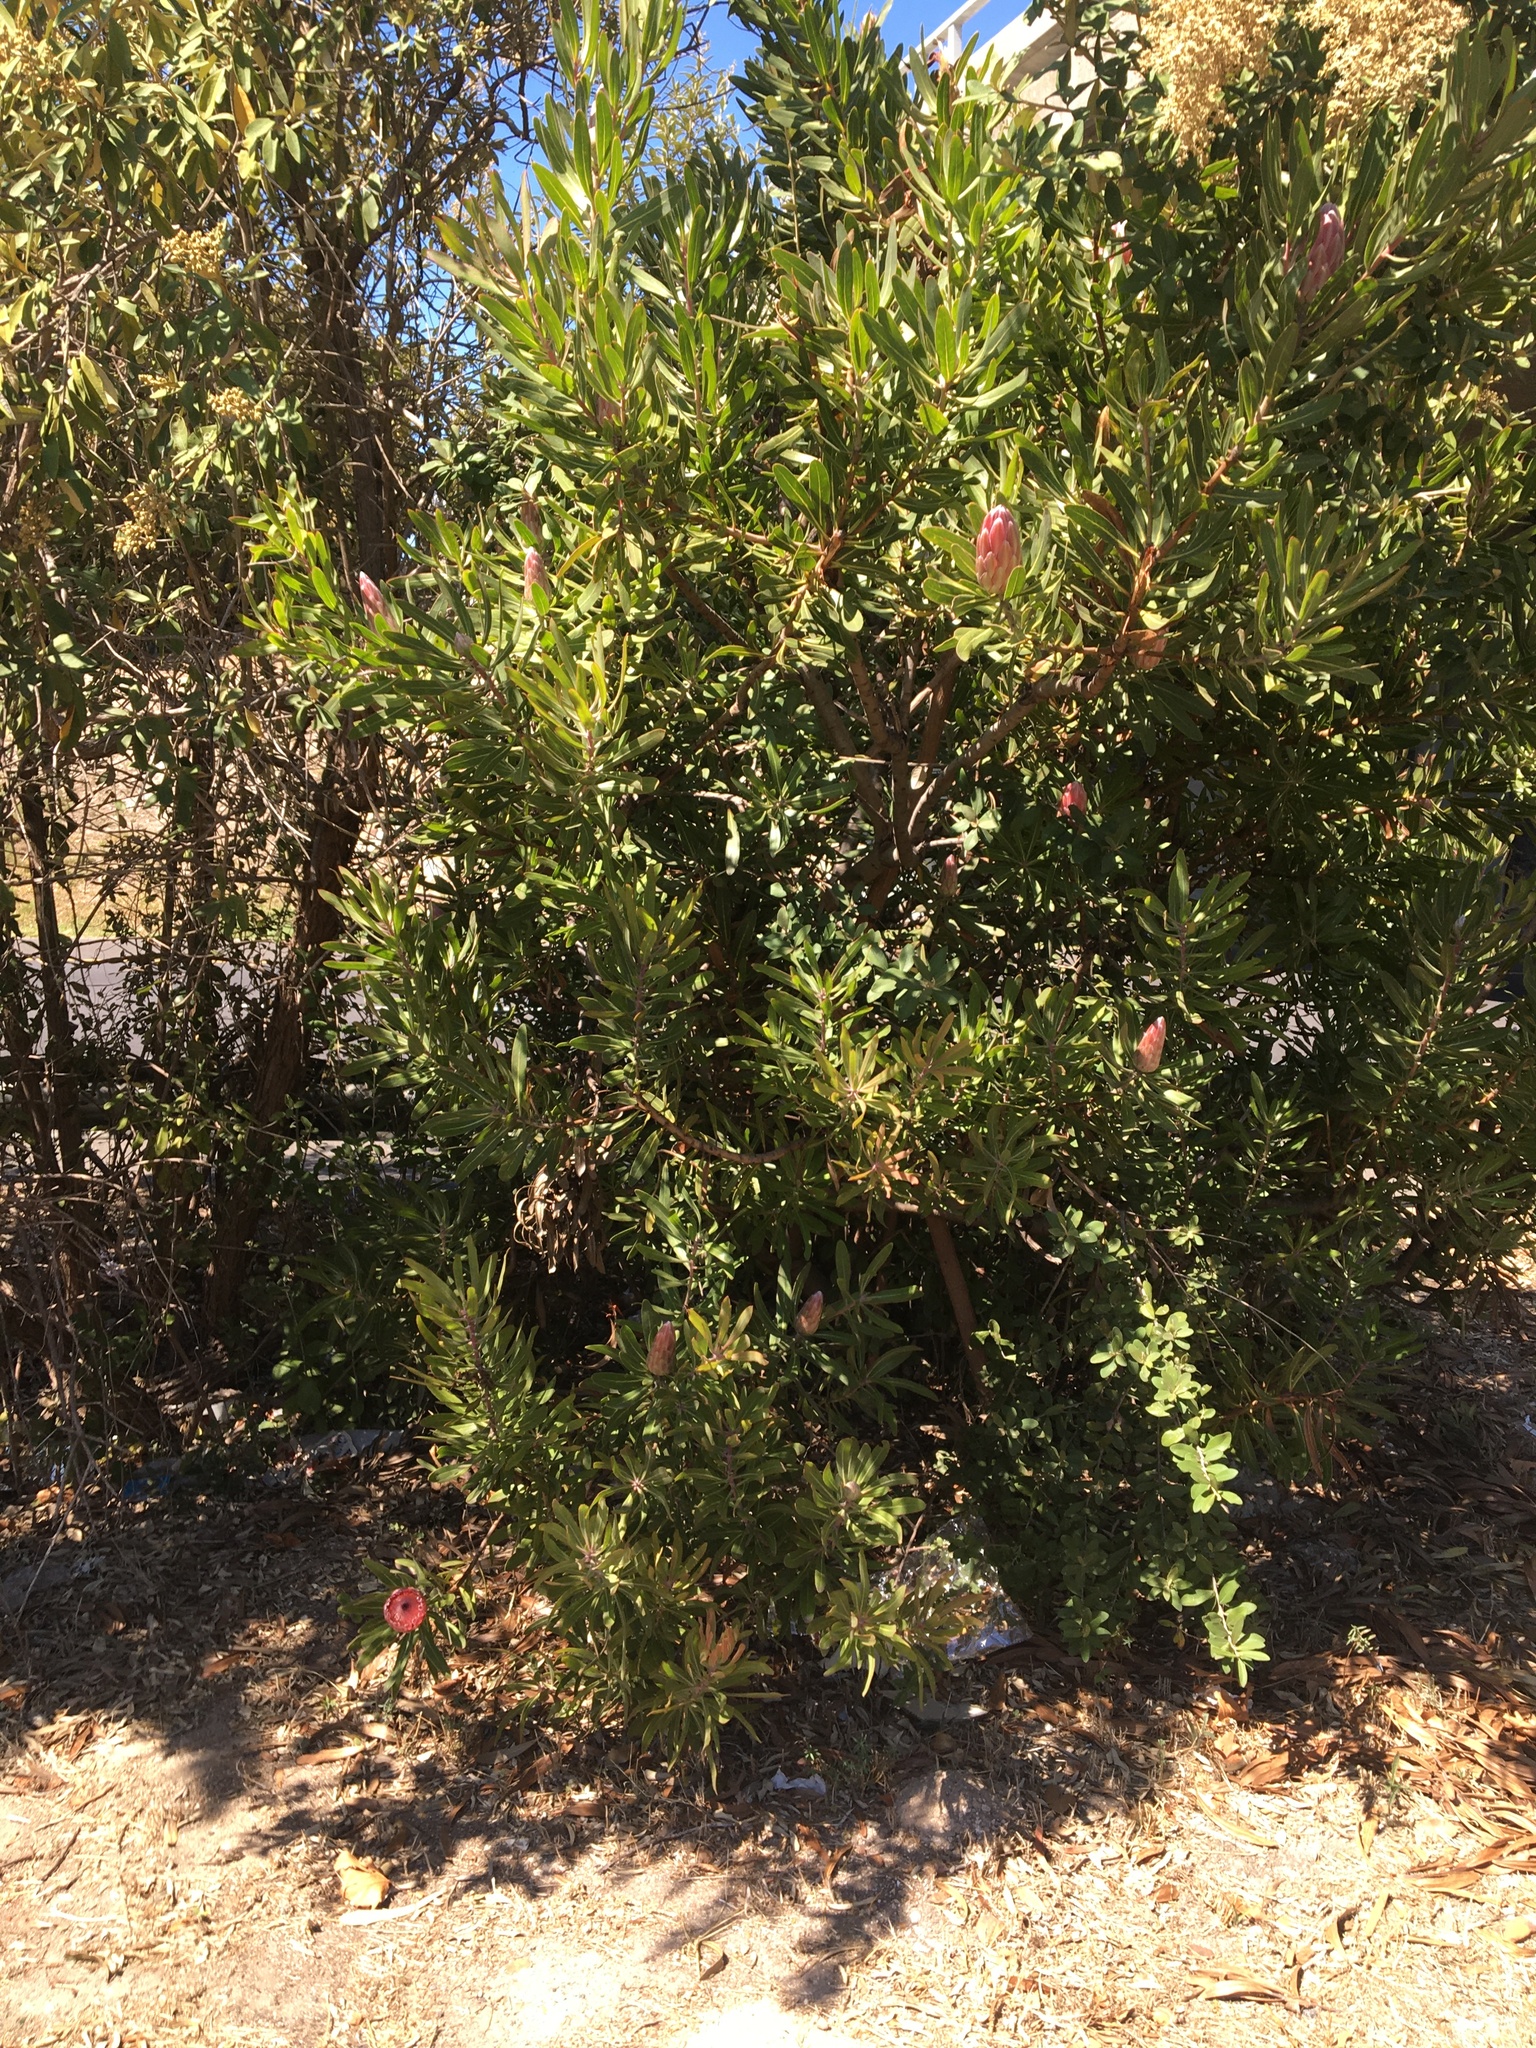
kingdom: Plantae
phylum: Tracheophyta
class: Magnoliopsida
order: Proteales
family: Proteaceae
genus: Protea
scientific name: Protea
